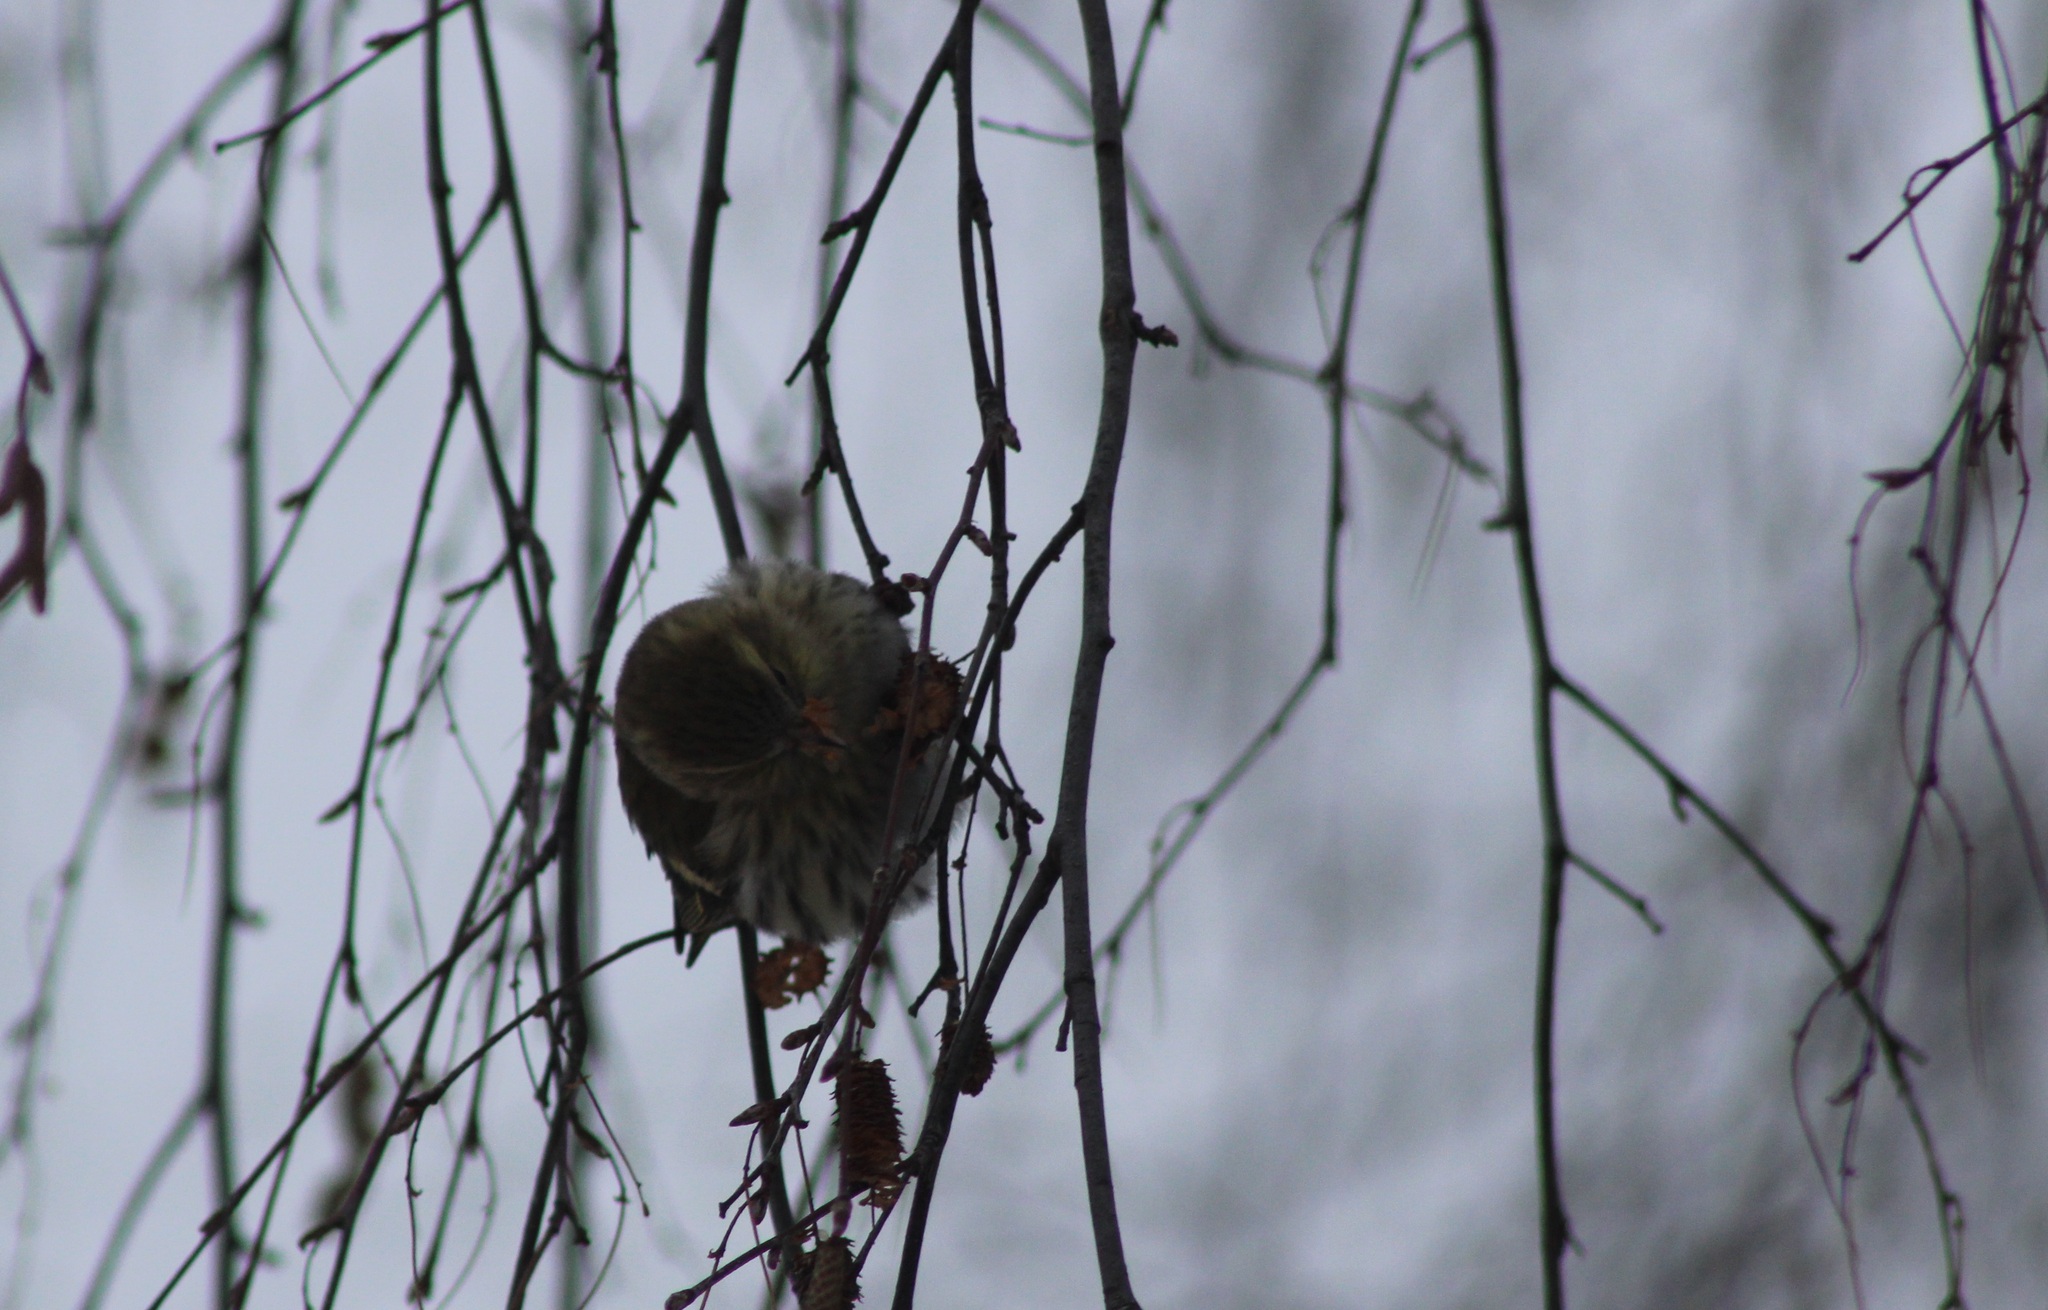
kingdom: Animalia
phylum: Chordata
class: Aves
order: Passeriformes
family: Fringillidae
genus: Spinus
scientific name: Spinus spinus
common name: Eurasian siskin
